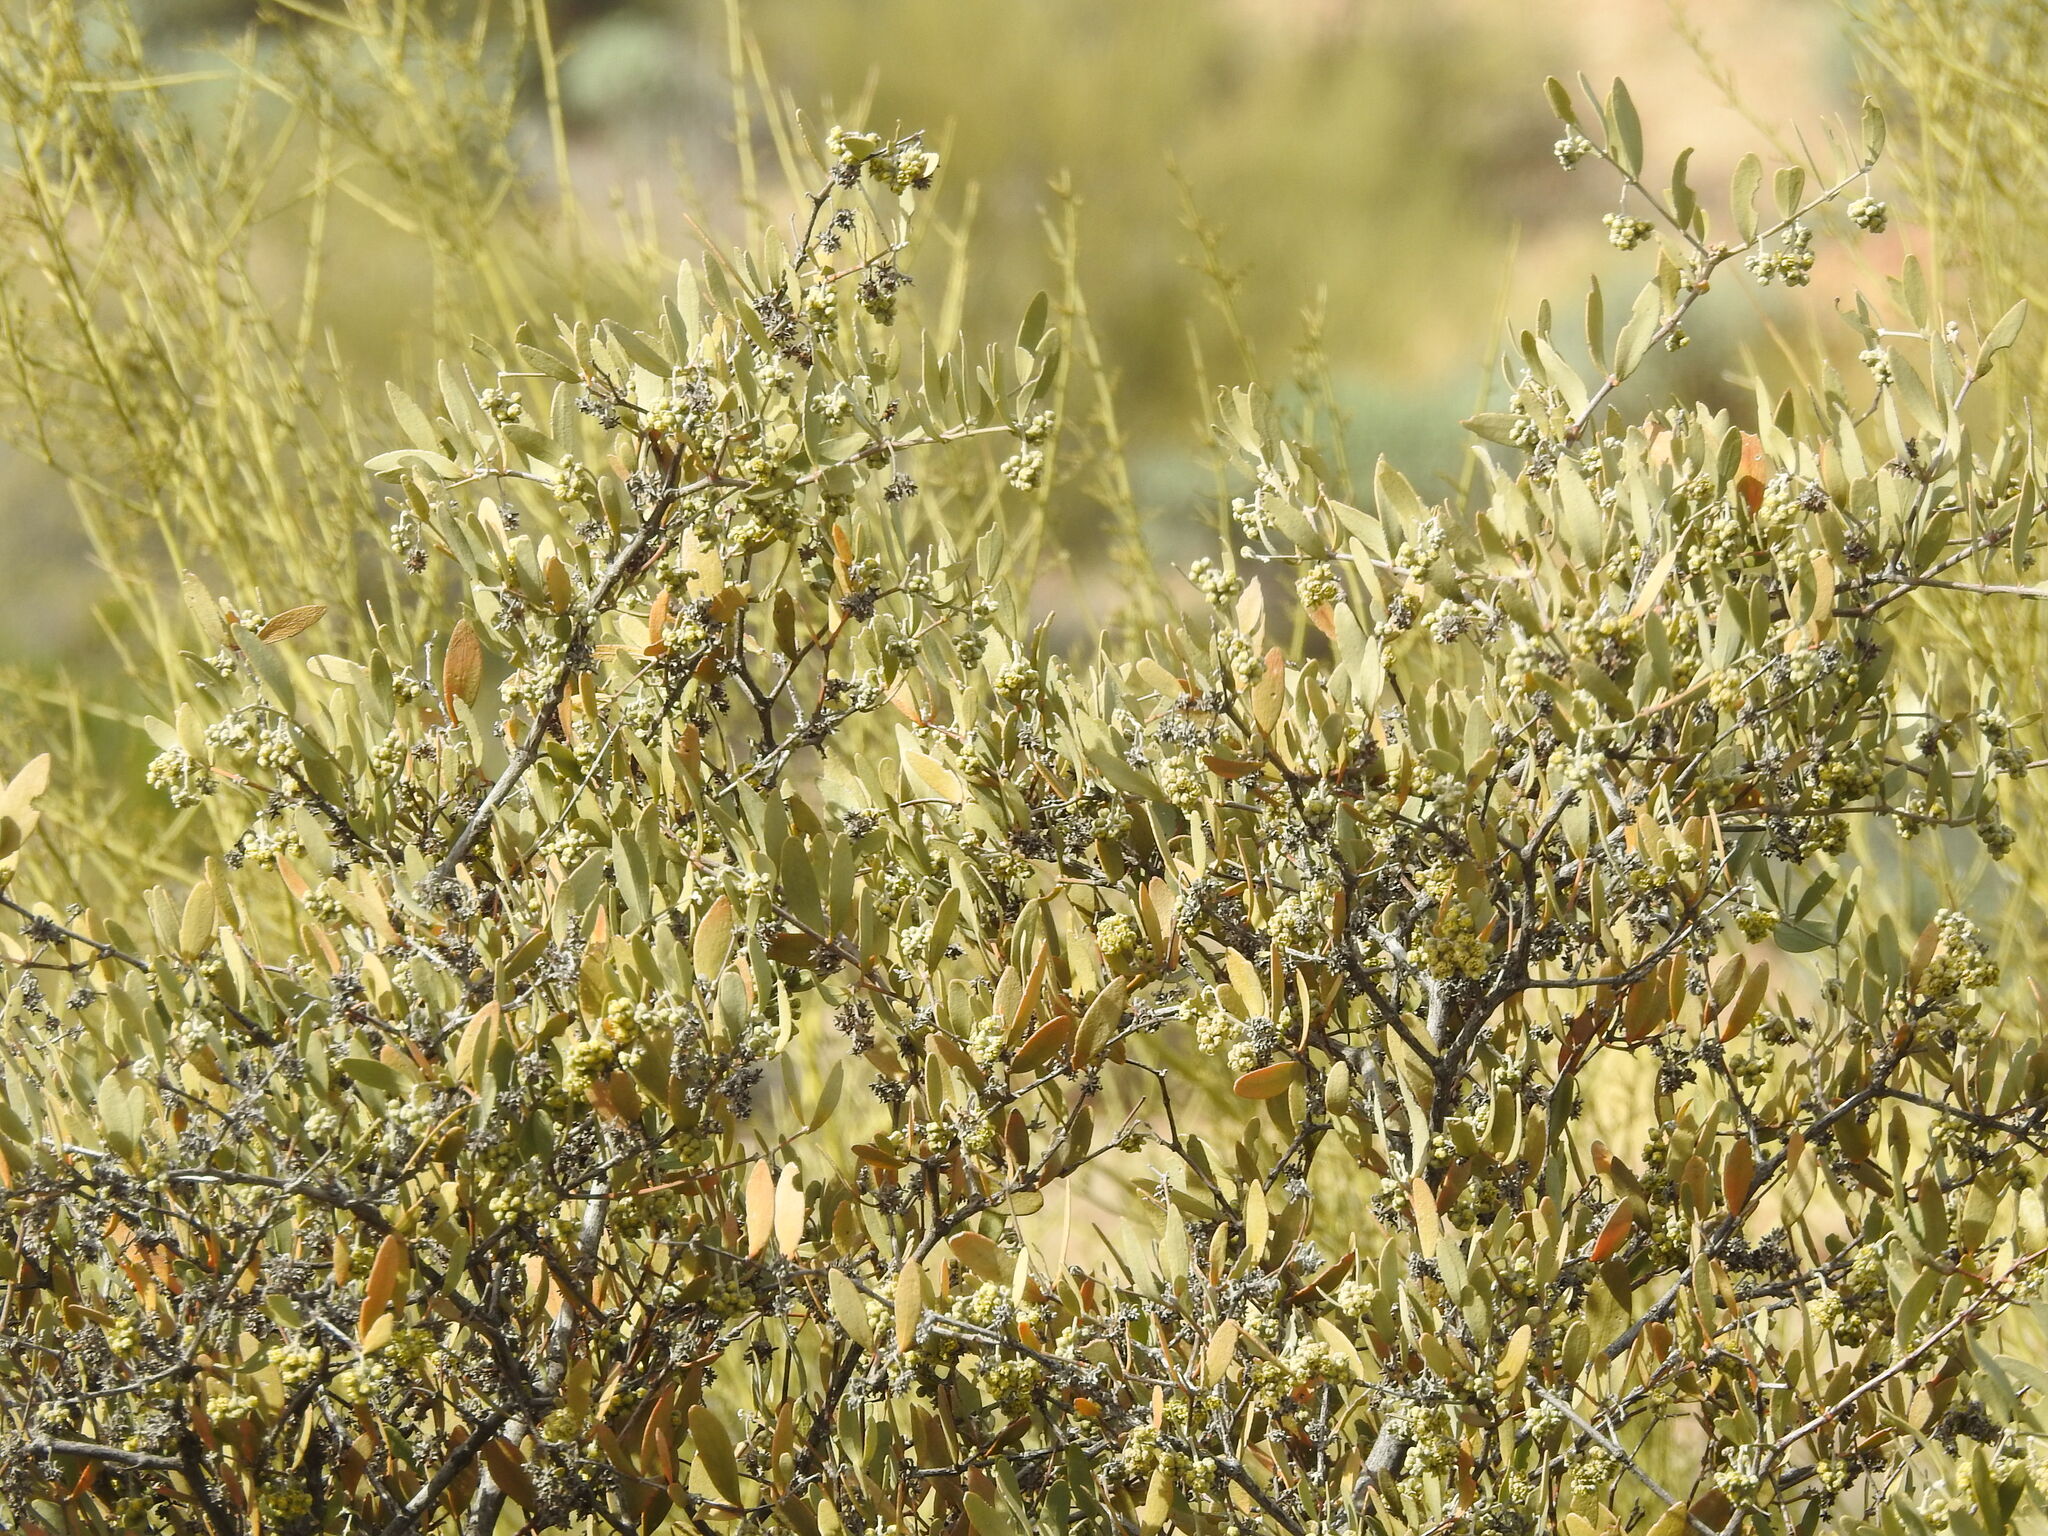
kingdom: Plantae
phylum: Tracheophyta
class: Magnoliopsida
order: Caryophyllales
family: Simmondsiaceae
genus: Simmondsia
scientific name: Simmondsia chinensis
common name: Jojoba
